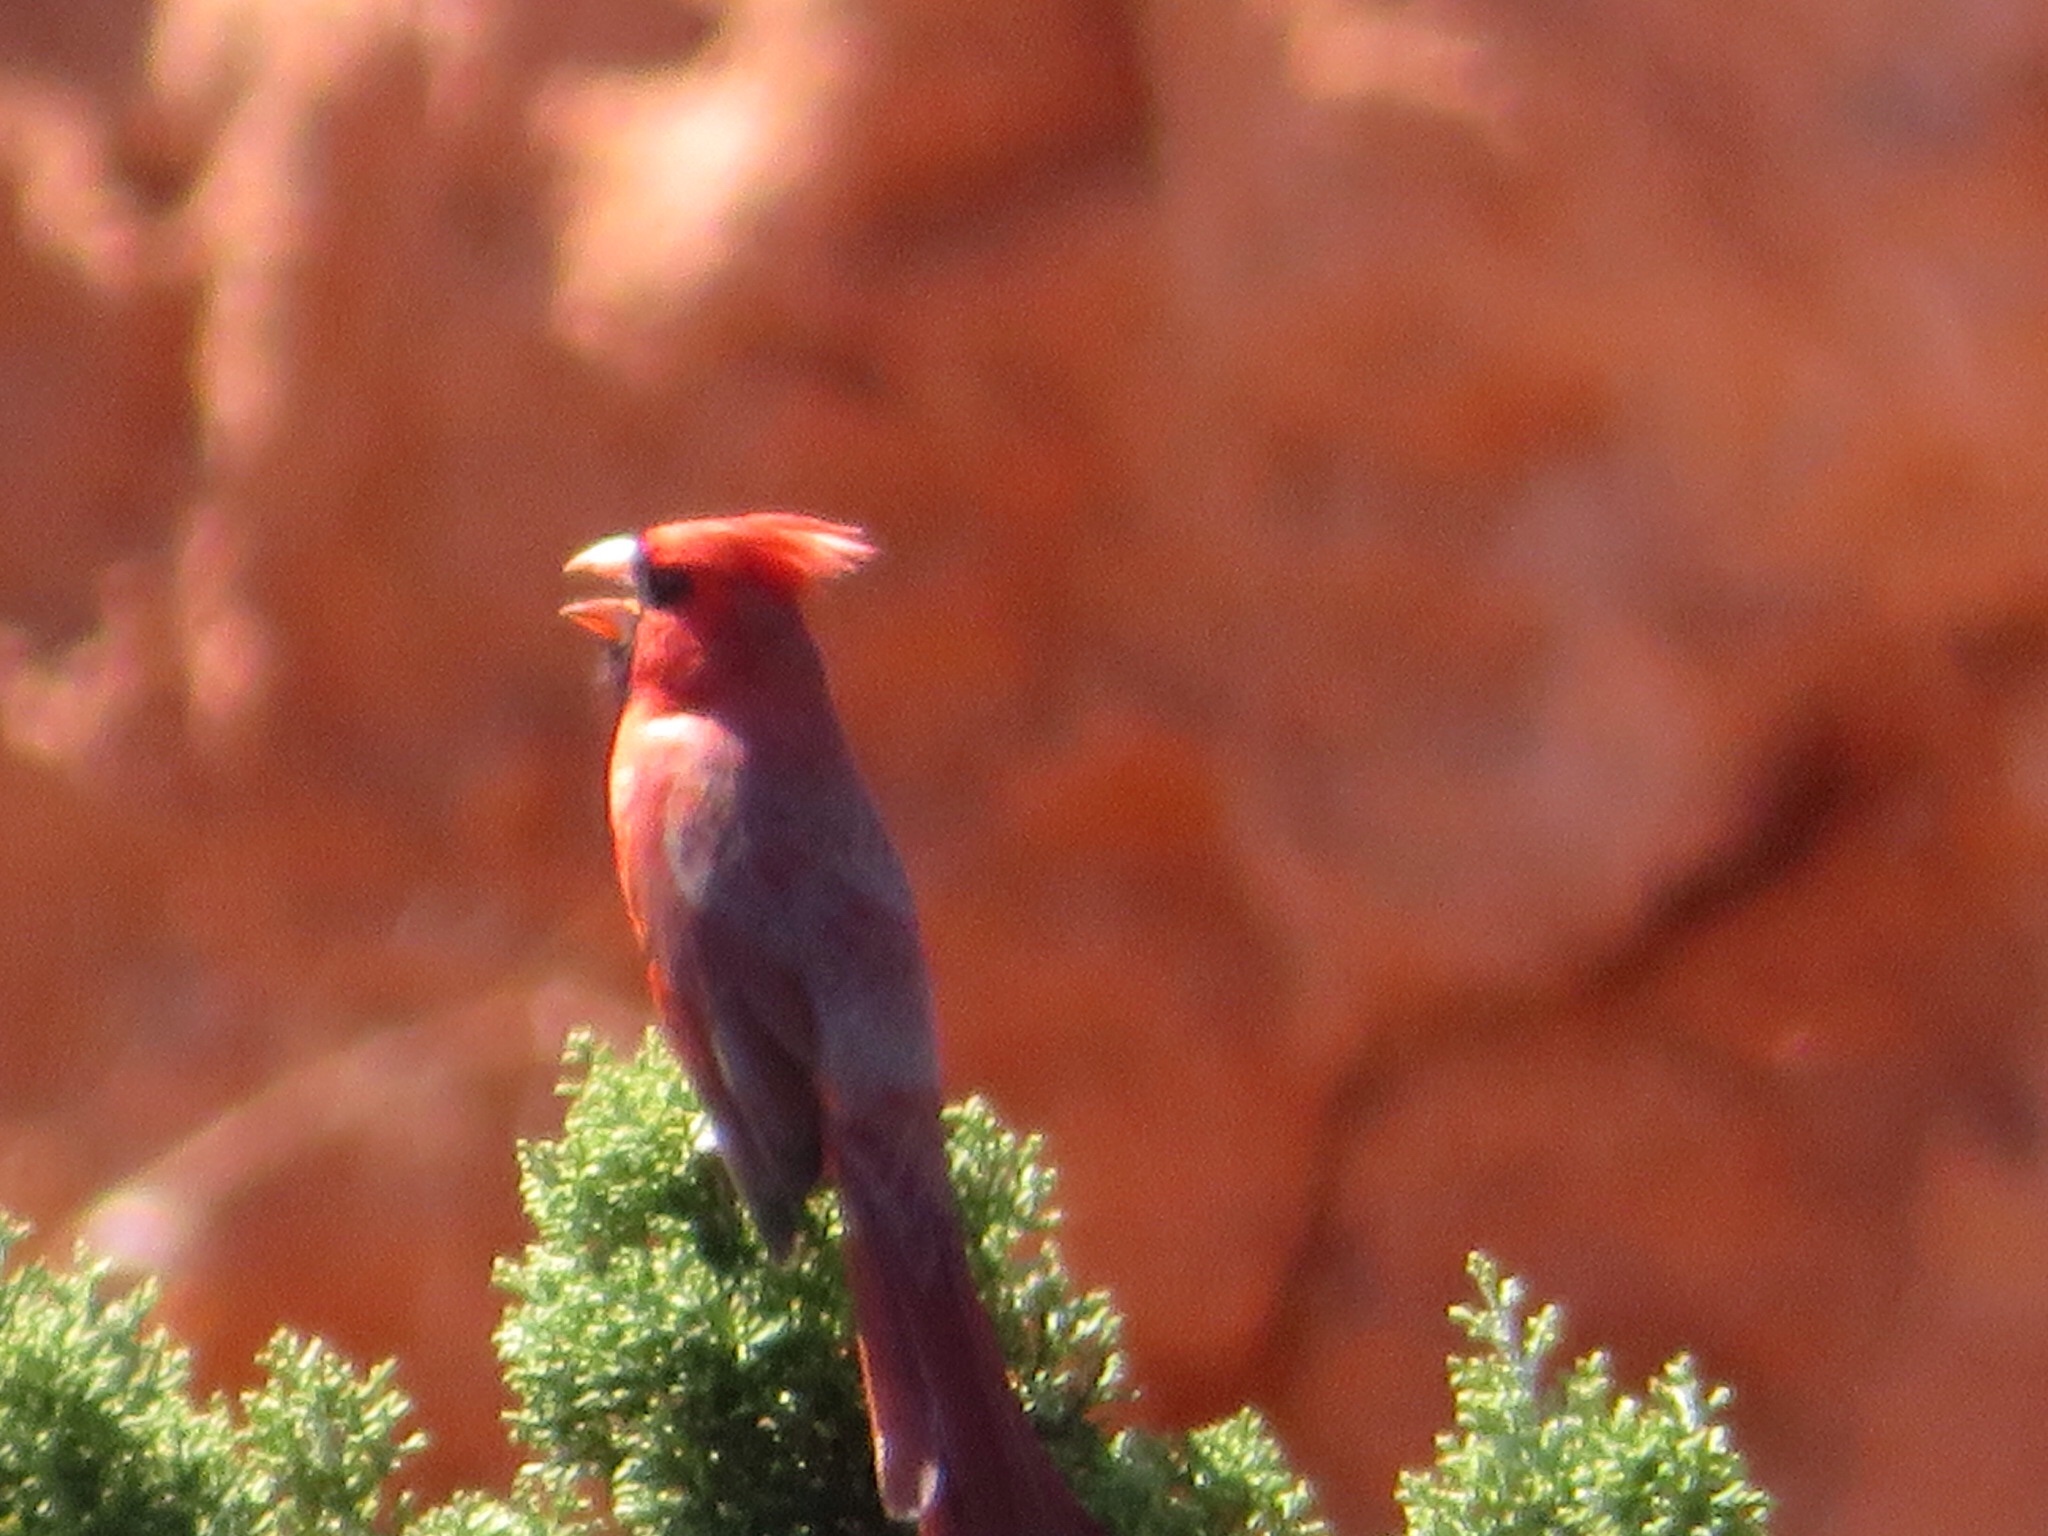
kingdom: Animalia
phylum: Chordata
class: Aves
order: Passeriformes
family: Cardinalidae
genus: Cardinalis
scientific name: Cardinalis cardinalis
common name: Northern cardinal
